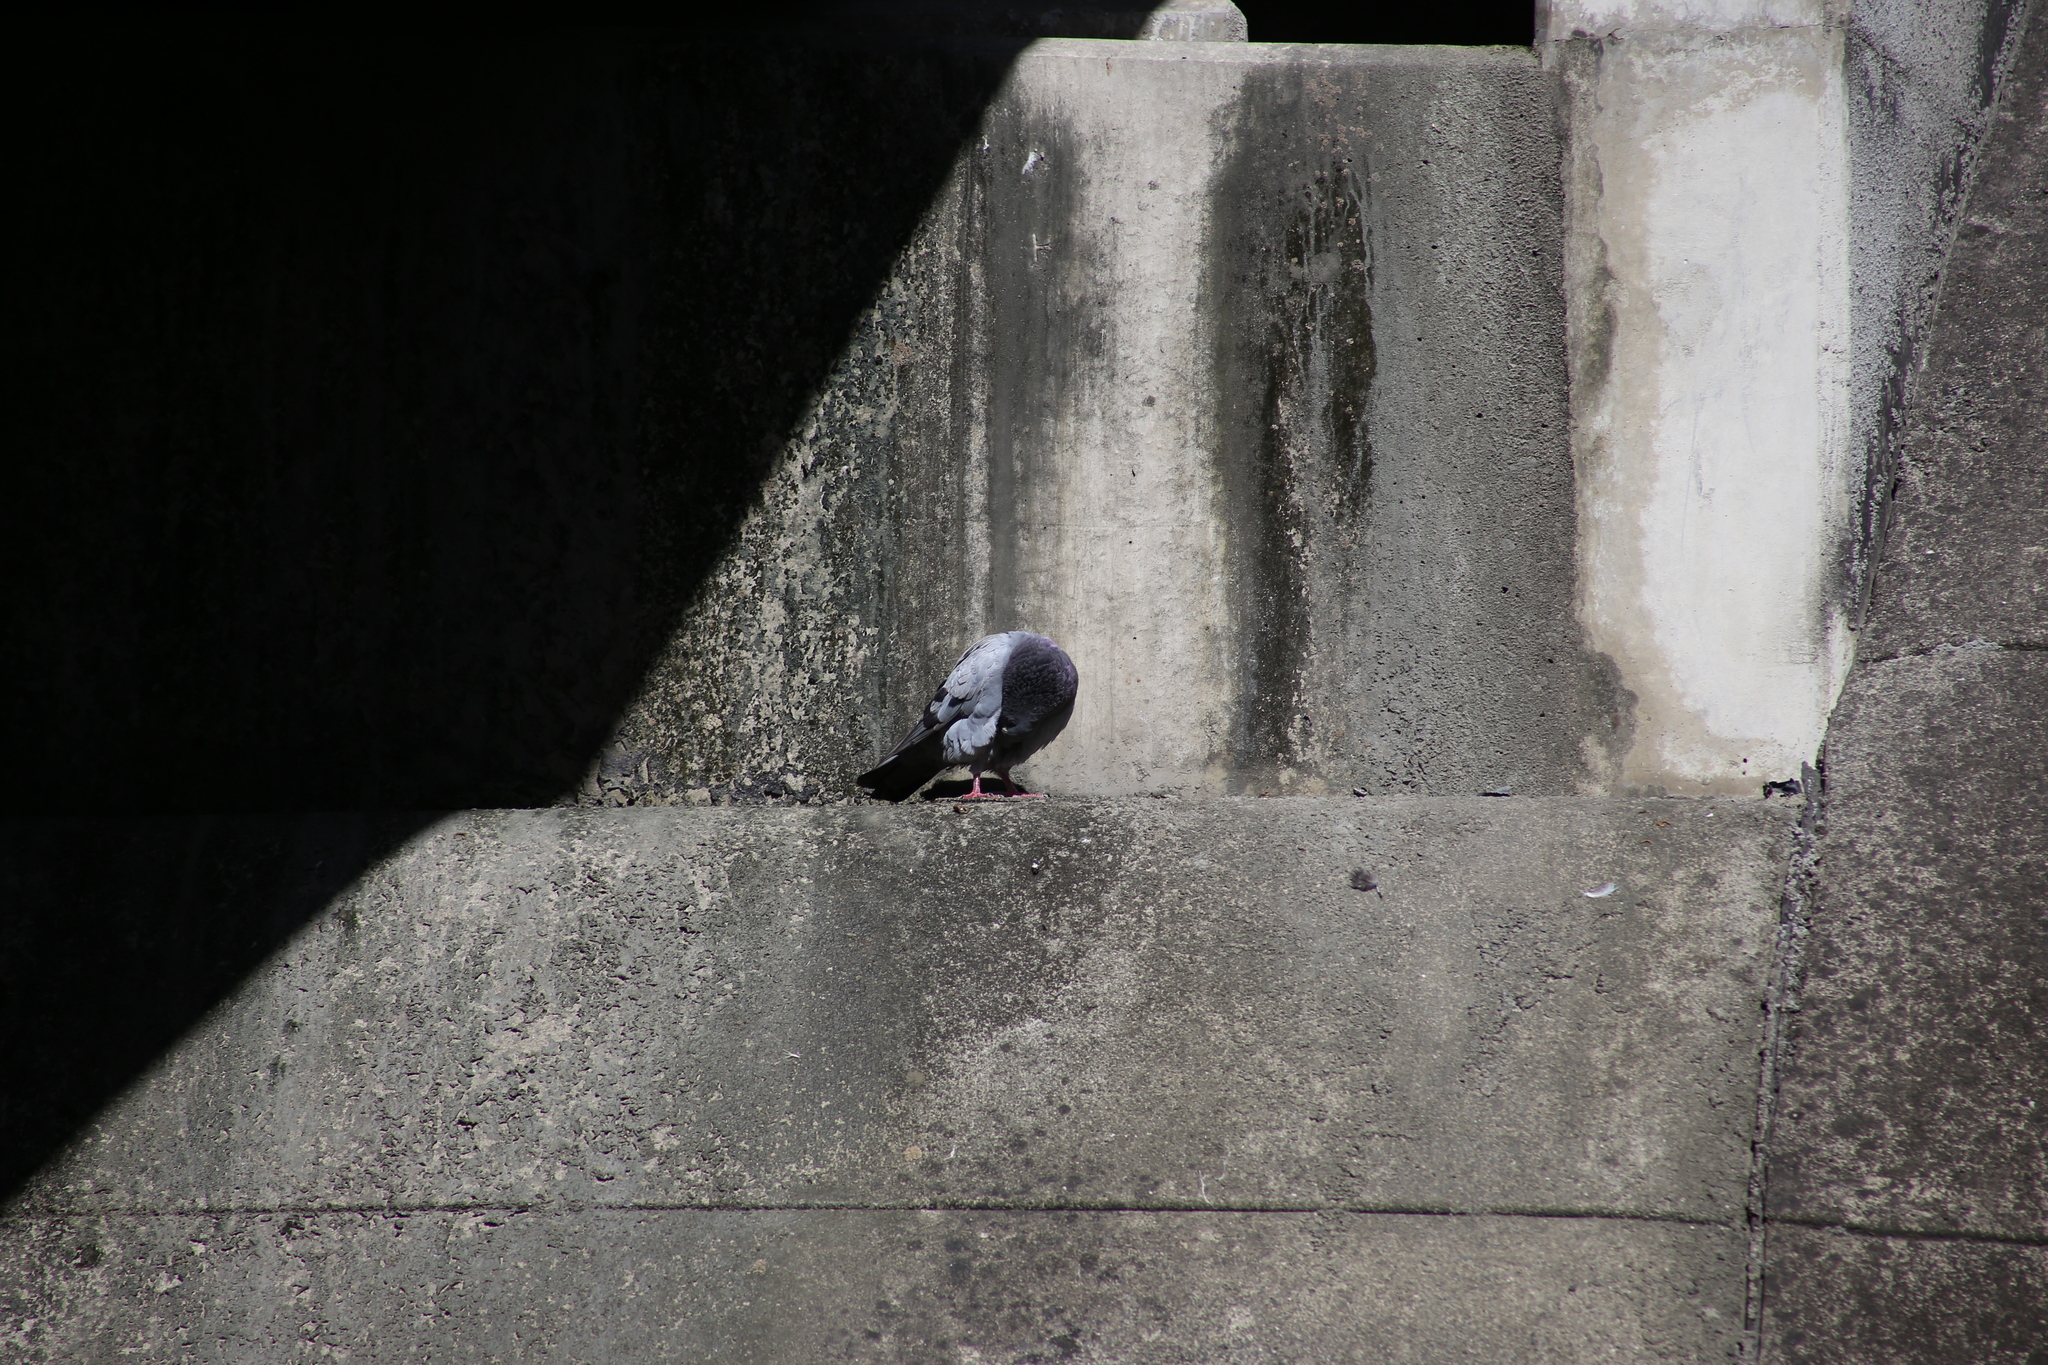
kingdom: Animalia
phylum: Chordata
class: Aves
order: Columbiformes
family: Columbidae
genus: Columba
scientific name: Columba livia
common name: Rock pigeon
